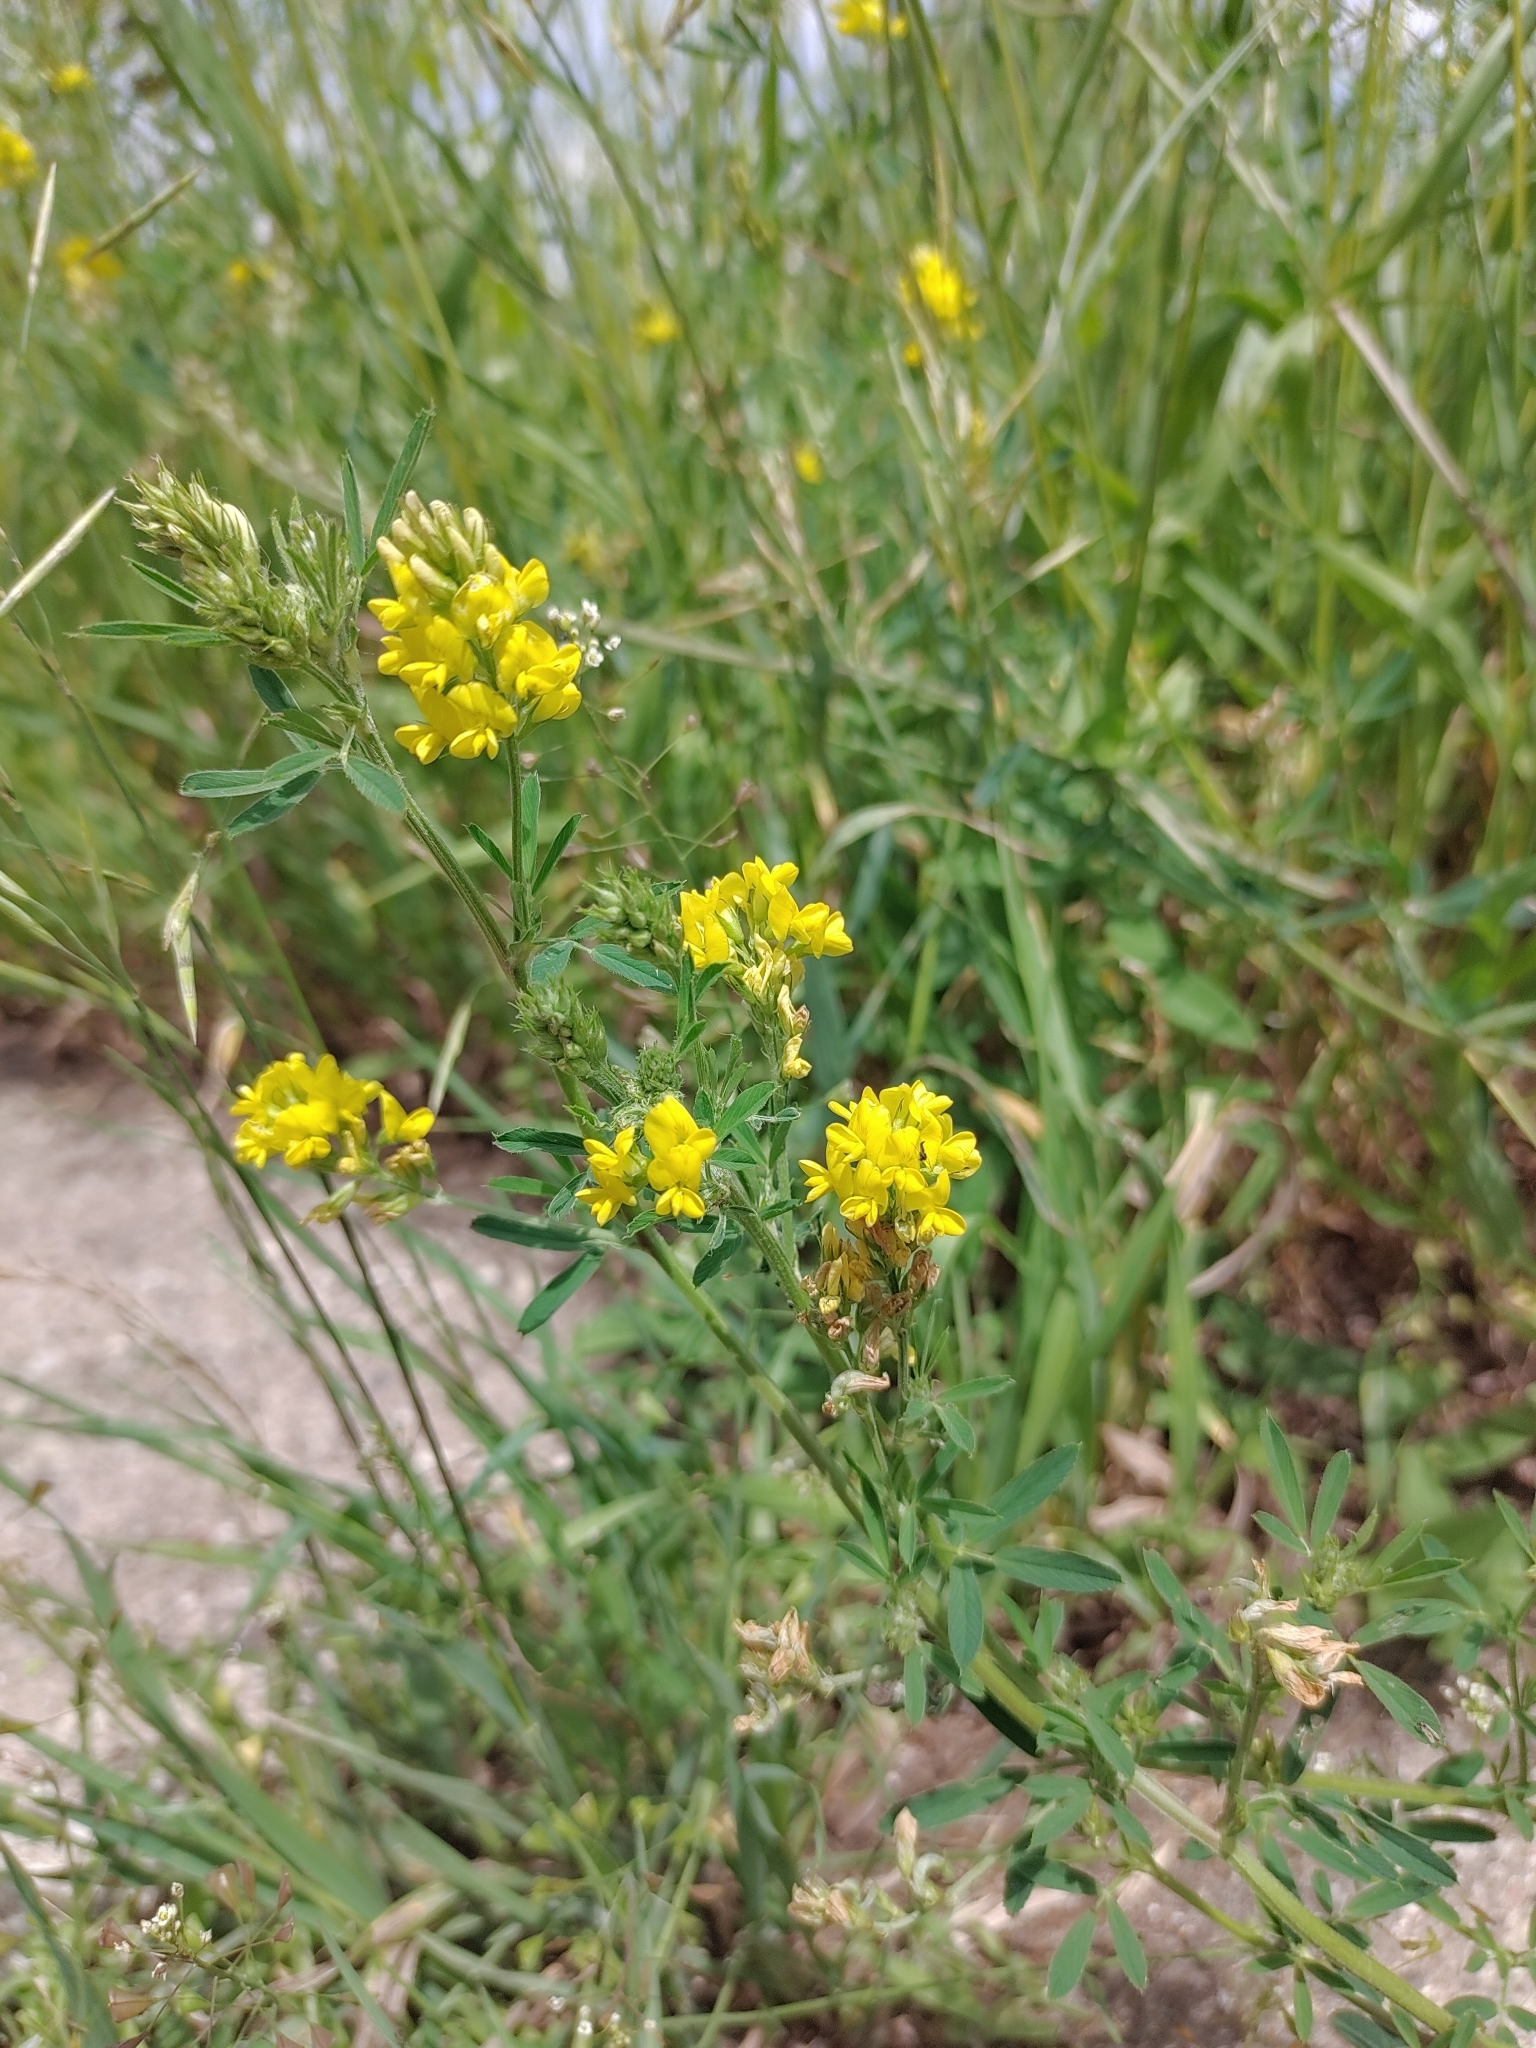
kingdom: Plantae
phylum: Tracheophyta
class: Magnoliopsida
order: Fabales
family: Fabaceae
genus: Medicago
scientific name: Medicago falcata
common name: Sickle medick
